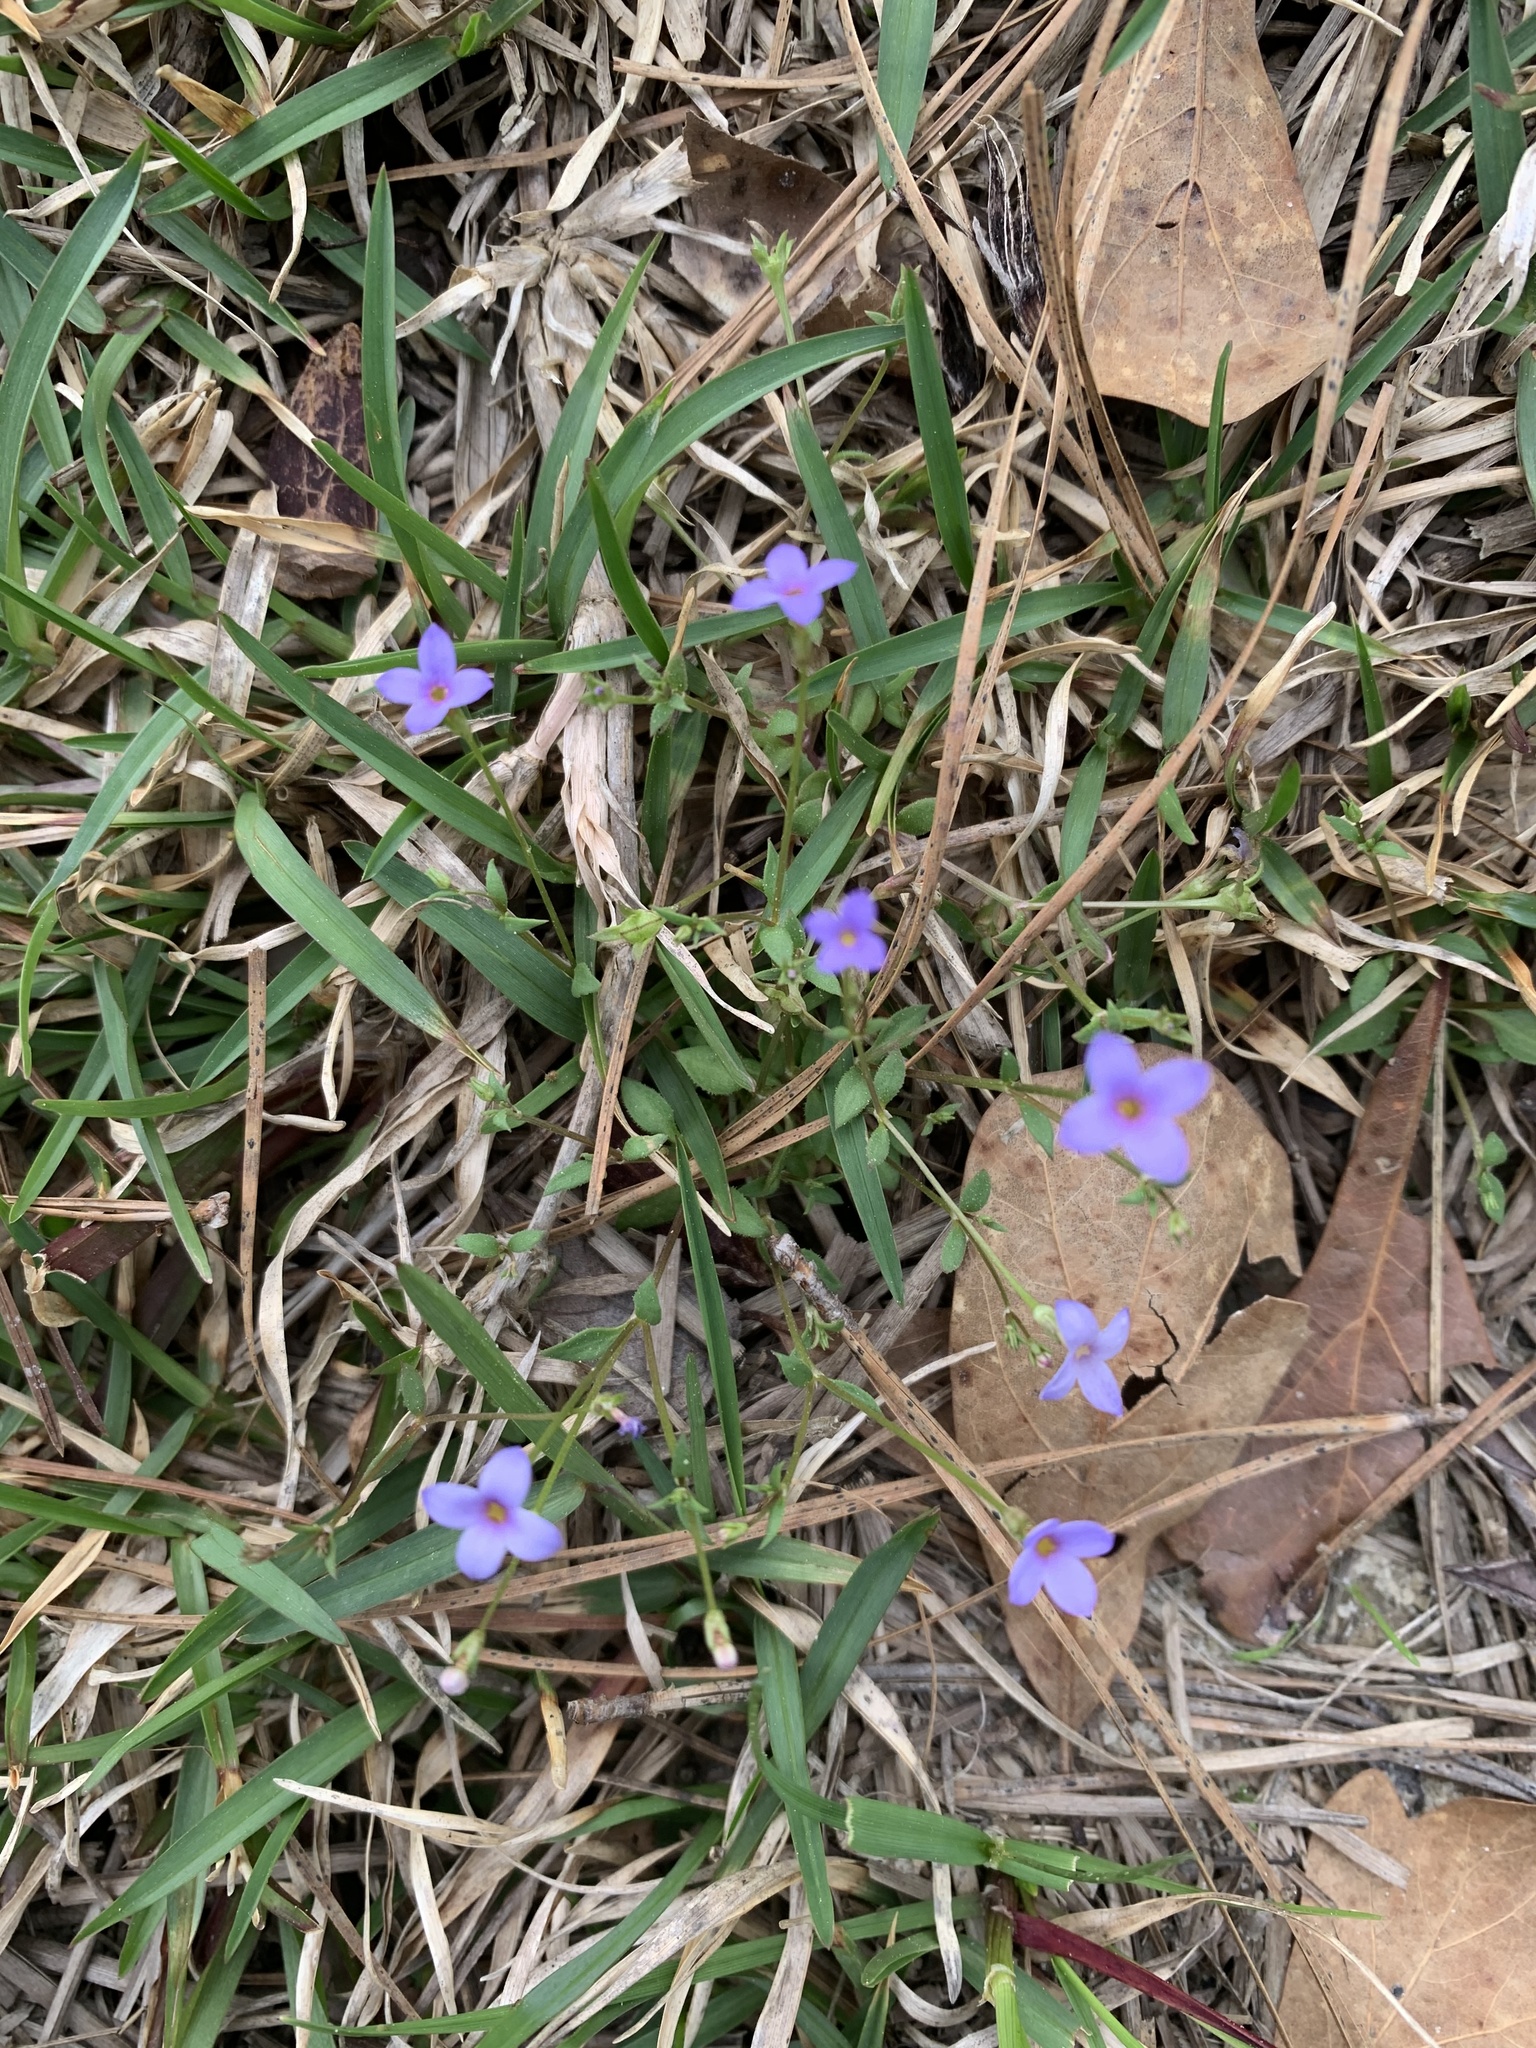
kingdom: Plantae
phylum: Tracheophyta
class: Magnoliopsida
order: Gentianales
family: Rubiaceae
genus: Houstonia
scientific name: Houstonia pusilla
